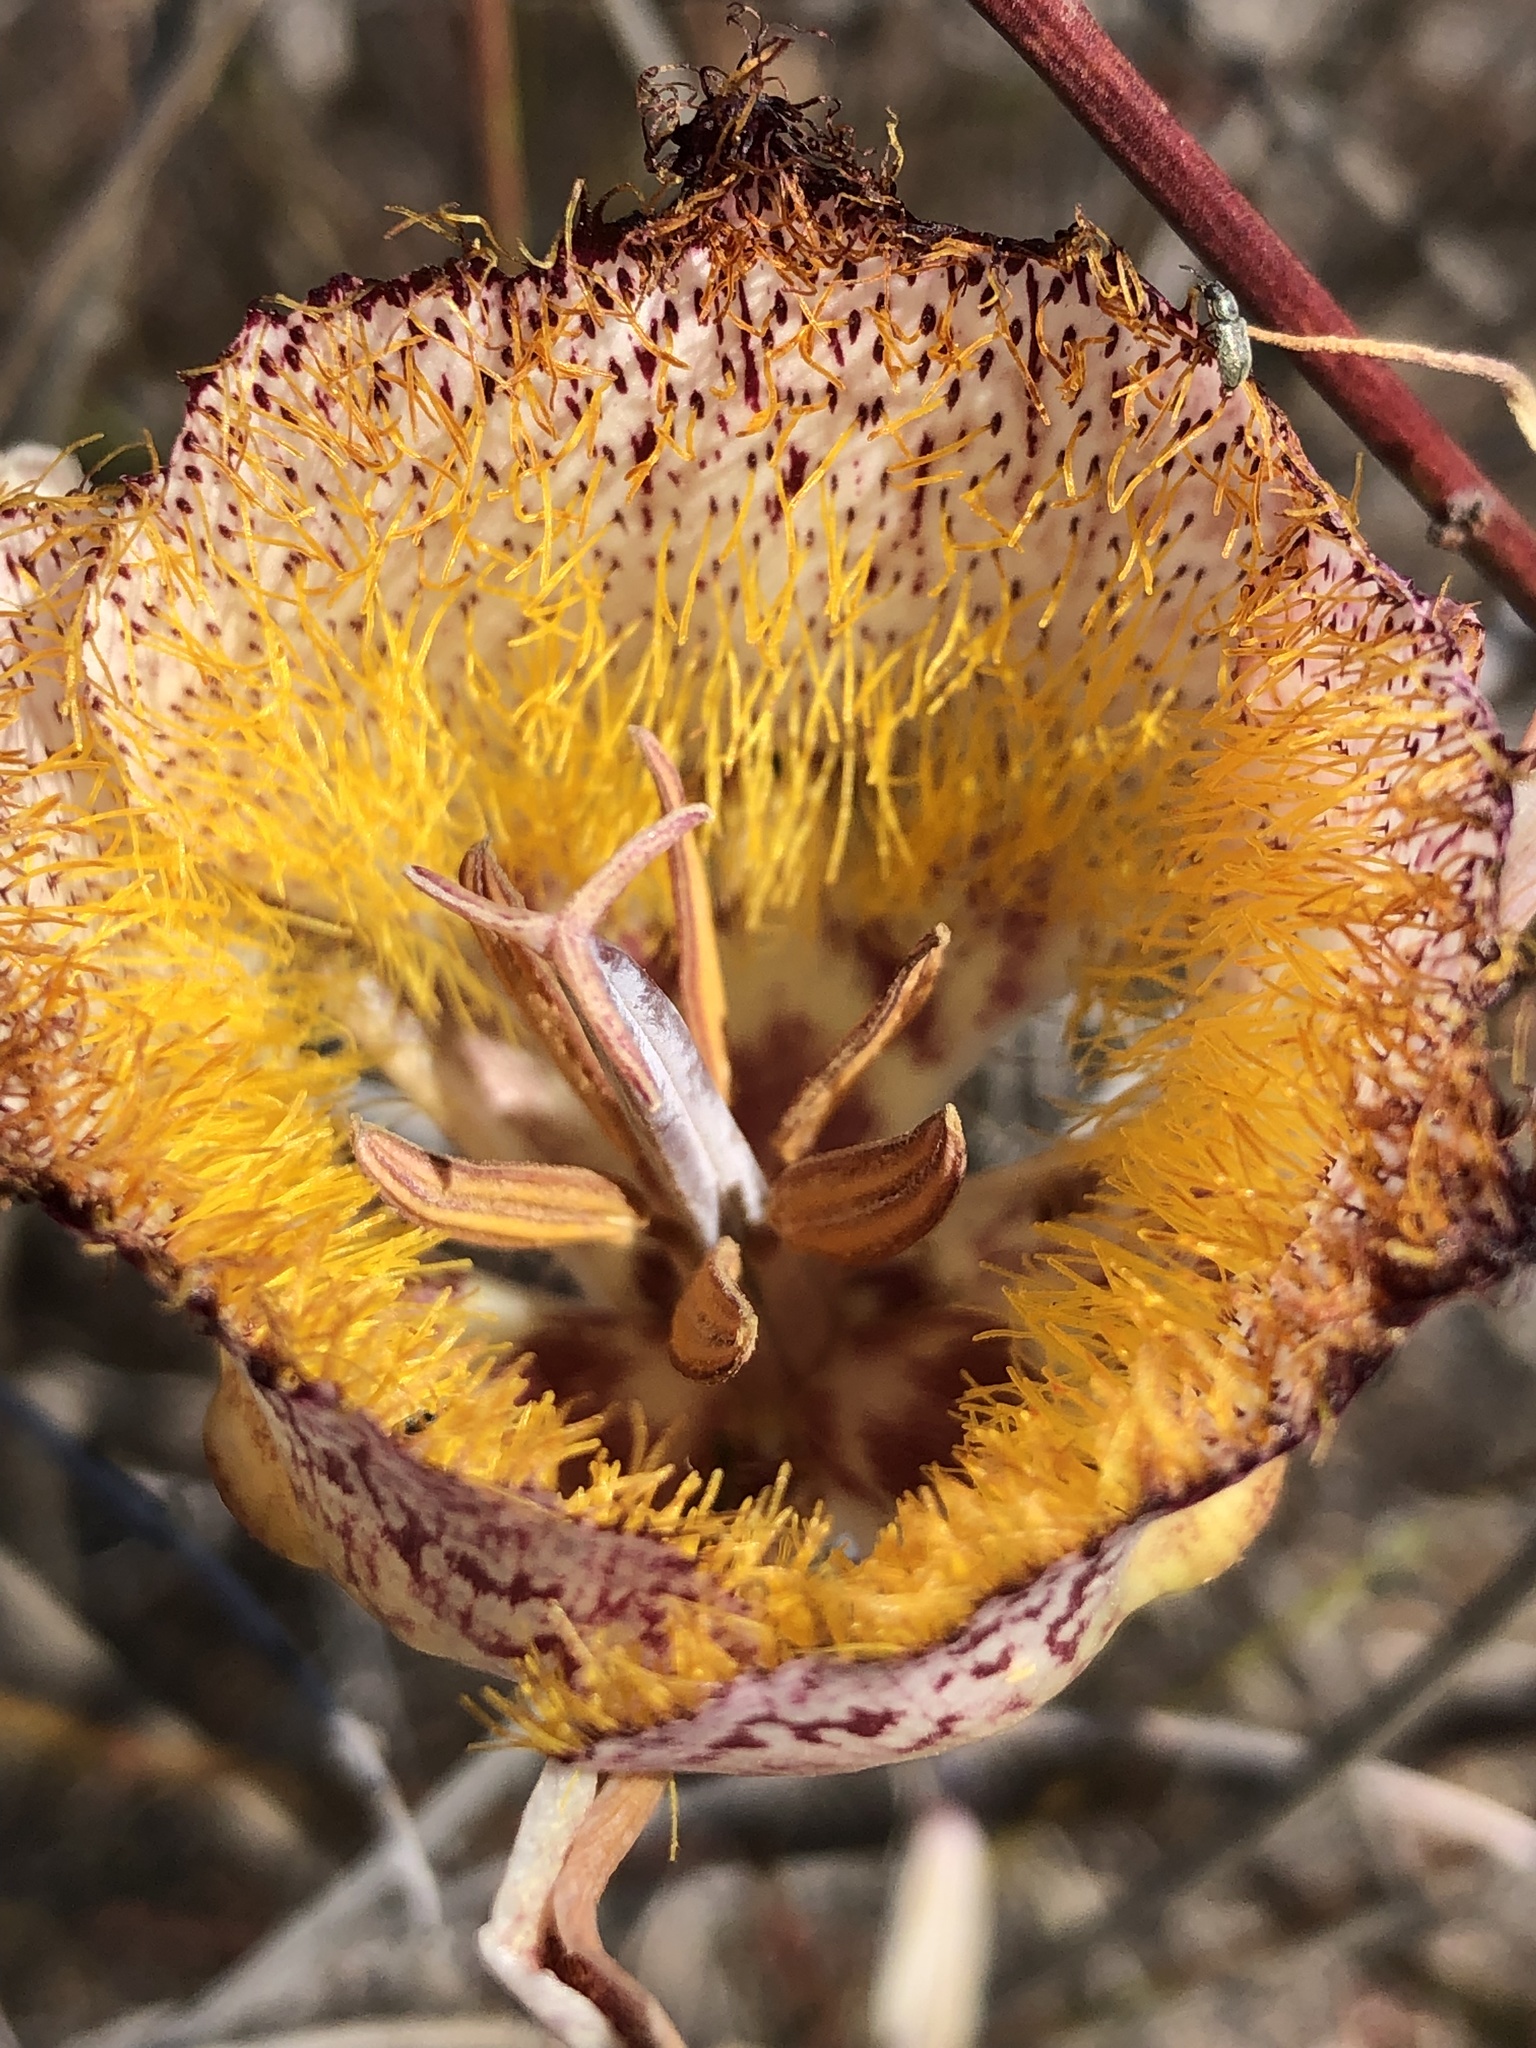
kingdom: Plantae
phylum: Tracheophyta
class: Liliopsida
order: Liliales
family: Liliaceae
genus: Calochortus
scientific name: Calochortus fimbriatus
